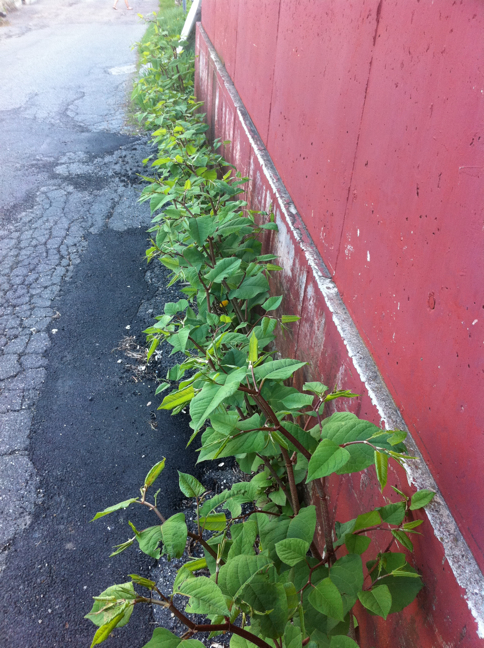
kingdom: Plantae
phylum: Tracheophyta
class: Magnoliopsida
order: Caryophyllales
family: Polygonaceae
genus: Reynoutria
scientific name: Reynoutria japonica
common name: Japanese knotweed
